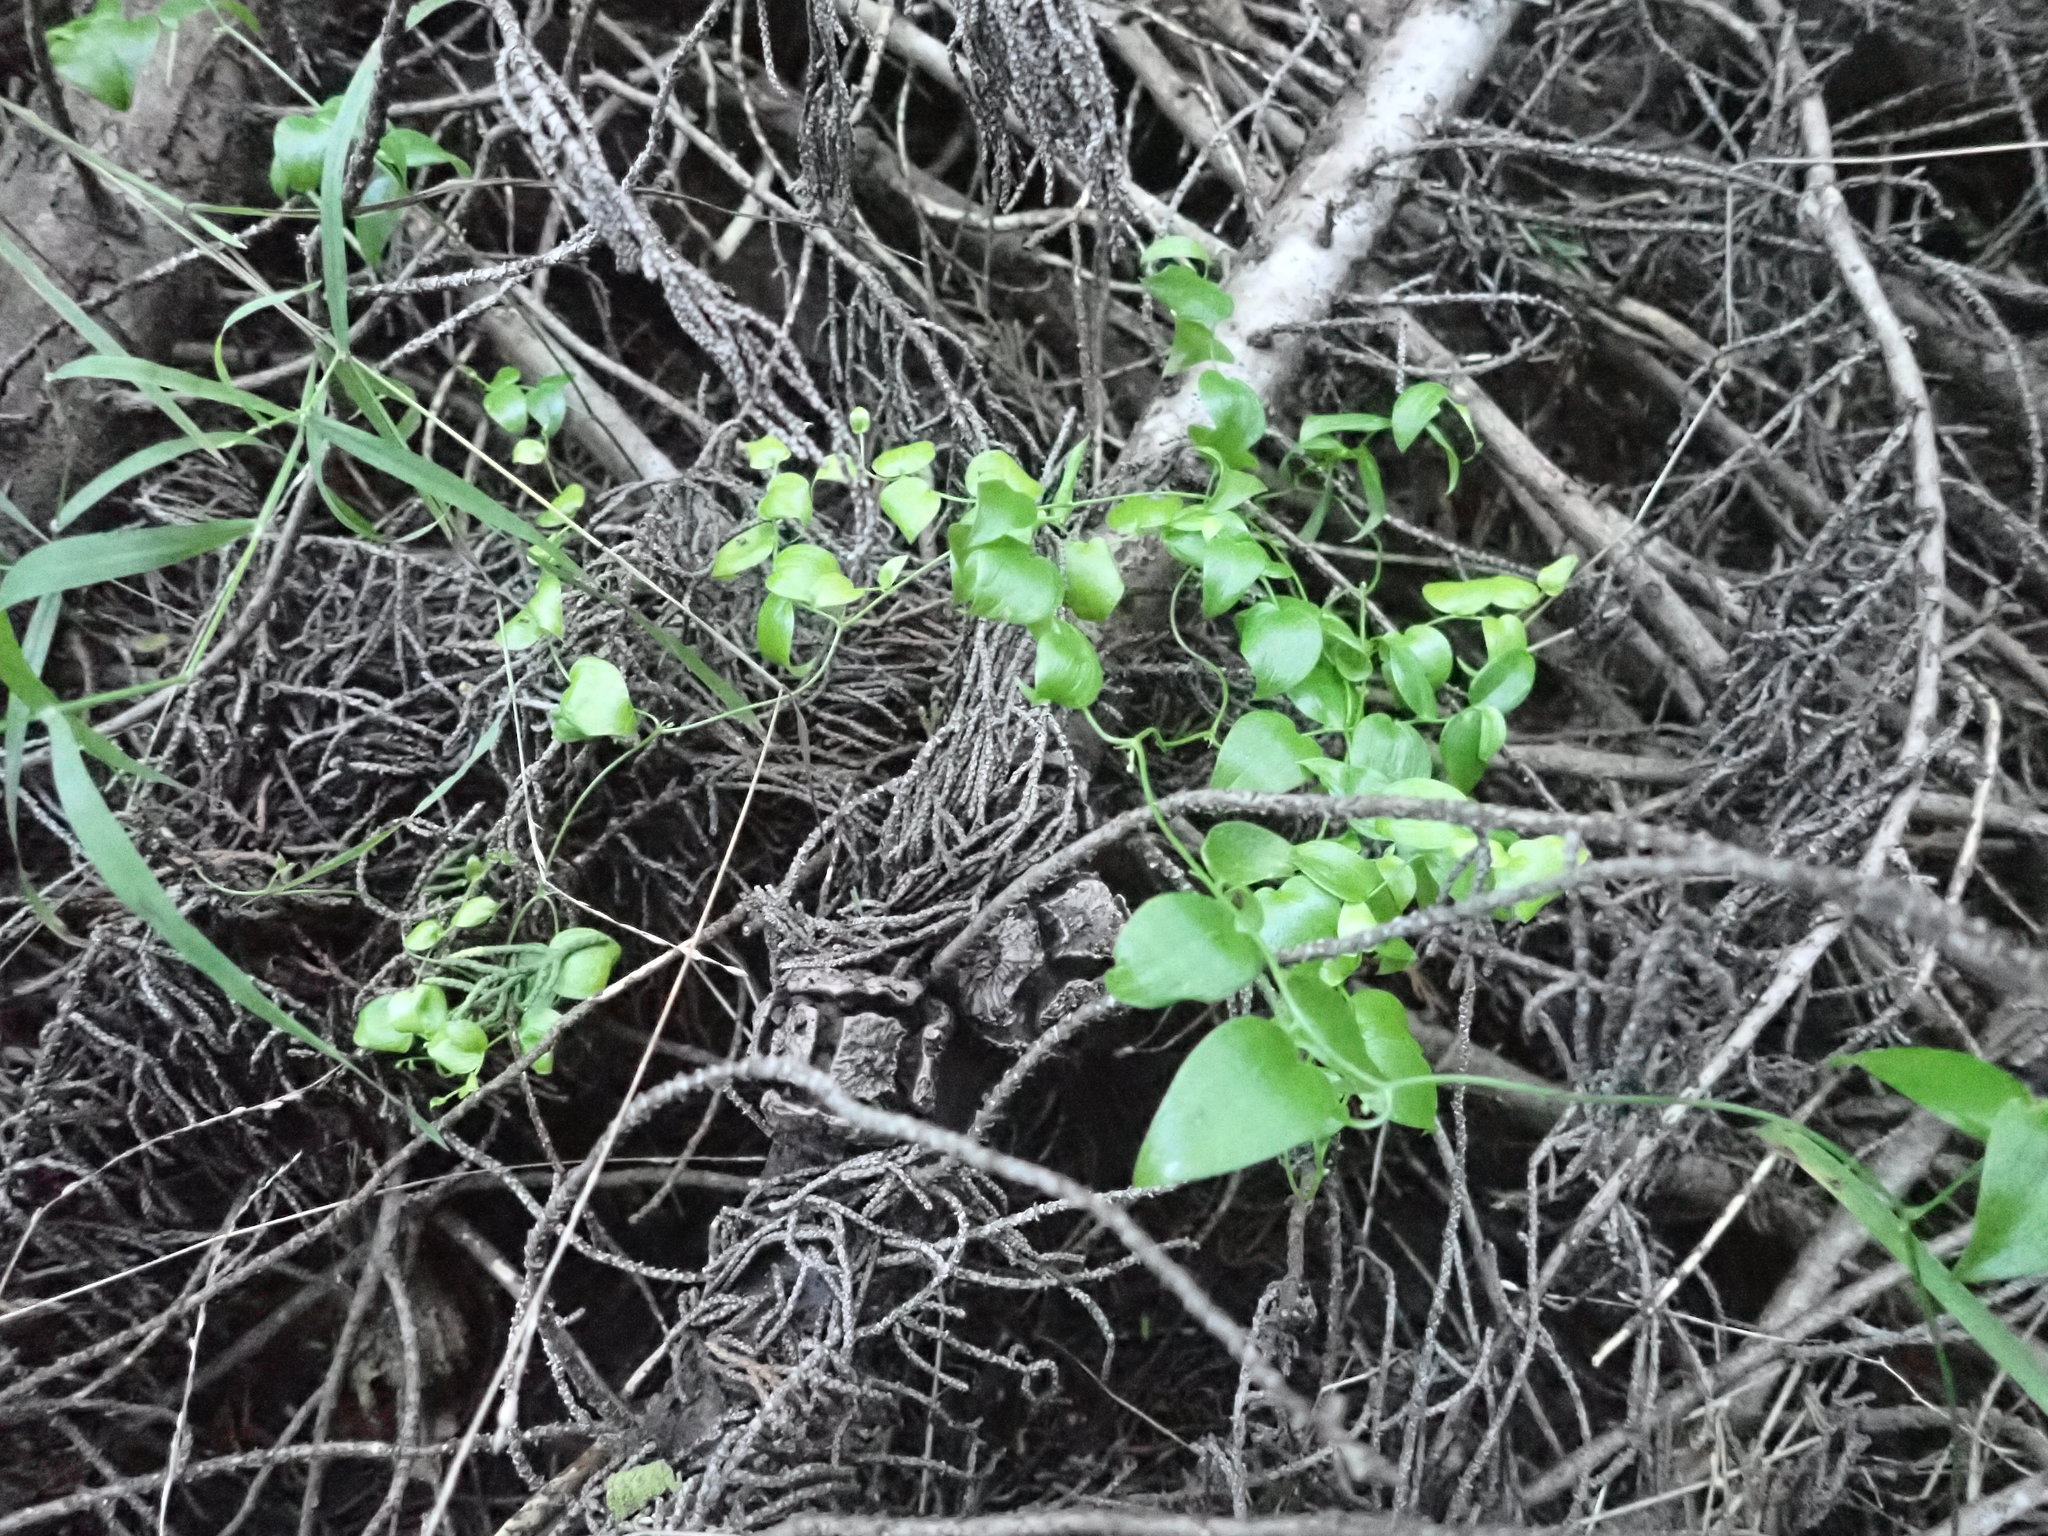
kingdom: Plantae
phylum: Tracheophyta
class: Liliopsida
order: Asparagales
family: Asparagaceae
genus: Asparagus
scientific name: Asparagus asparagoides
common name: African asparagus fern
